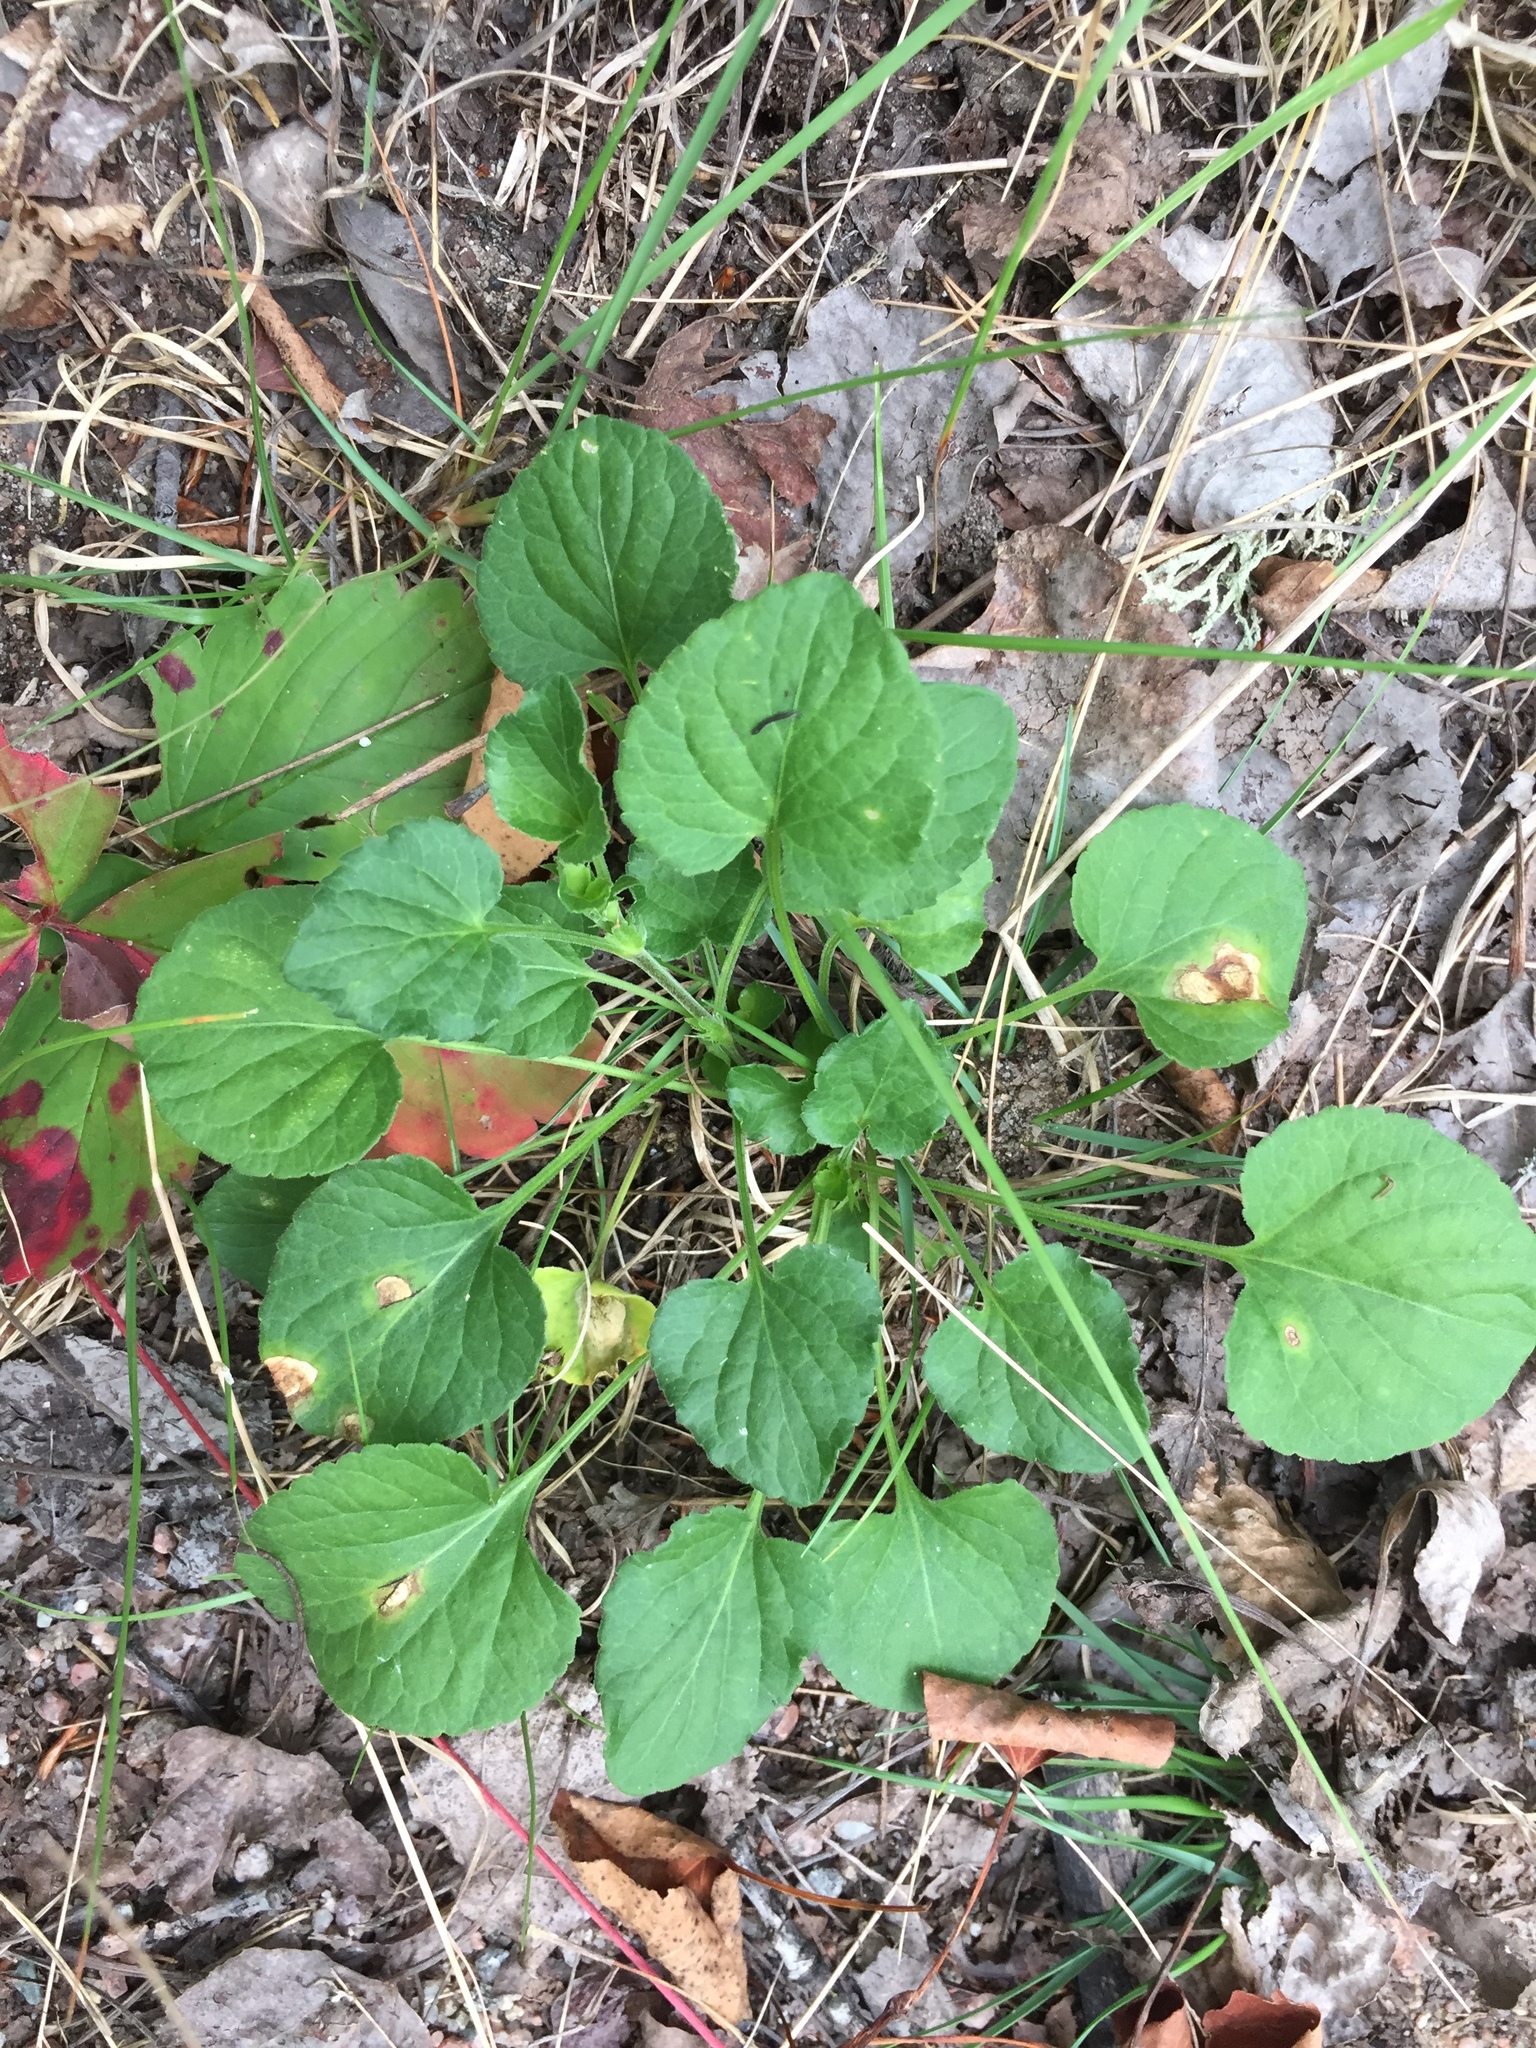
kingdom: Plantae
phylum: Tracheophyta
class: Magnoliopsida
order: Malpighiales
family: Violaceae
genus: Viola
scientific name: Viola adunca
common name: Sand violet
